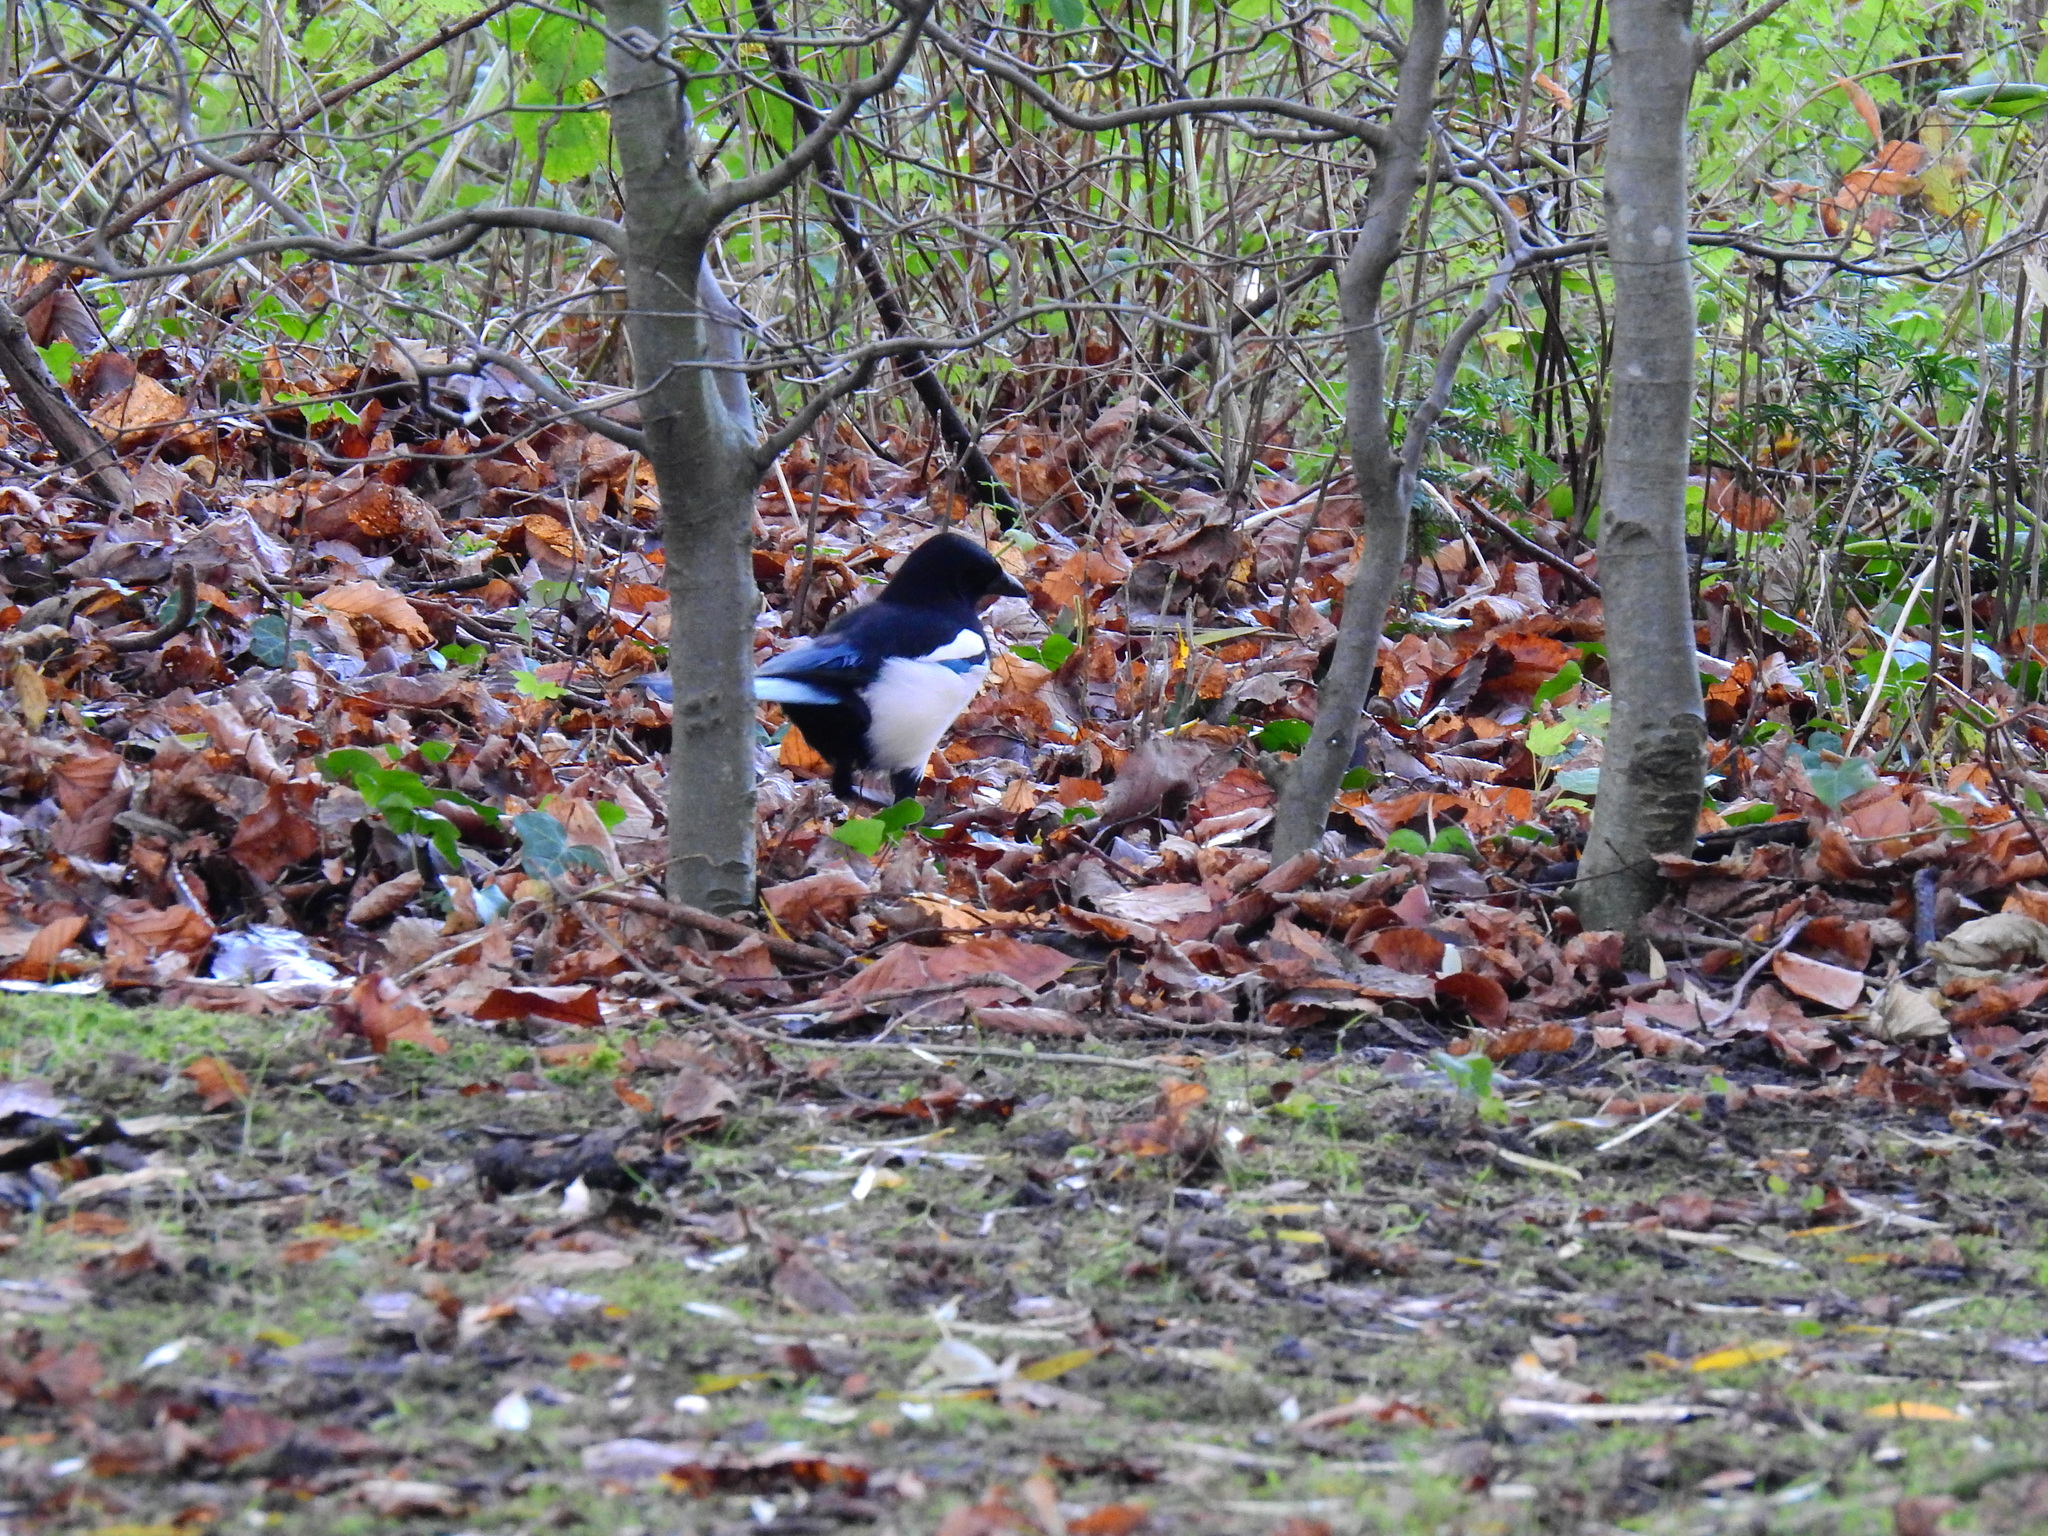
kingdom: Animalia
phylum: Chordata
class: Aves
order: Passeriformes
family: Corvidae
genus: Pica
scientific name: Pica pica
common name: Eurasian magpie
